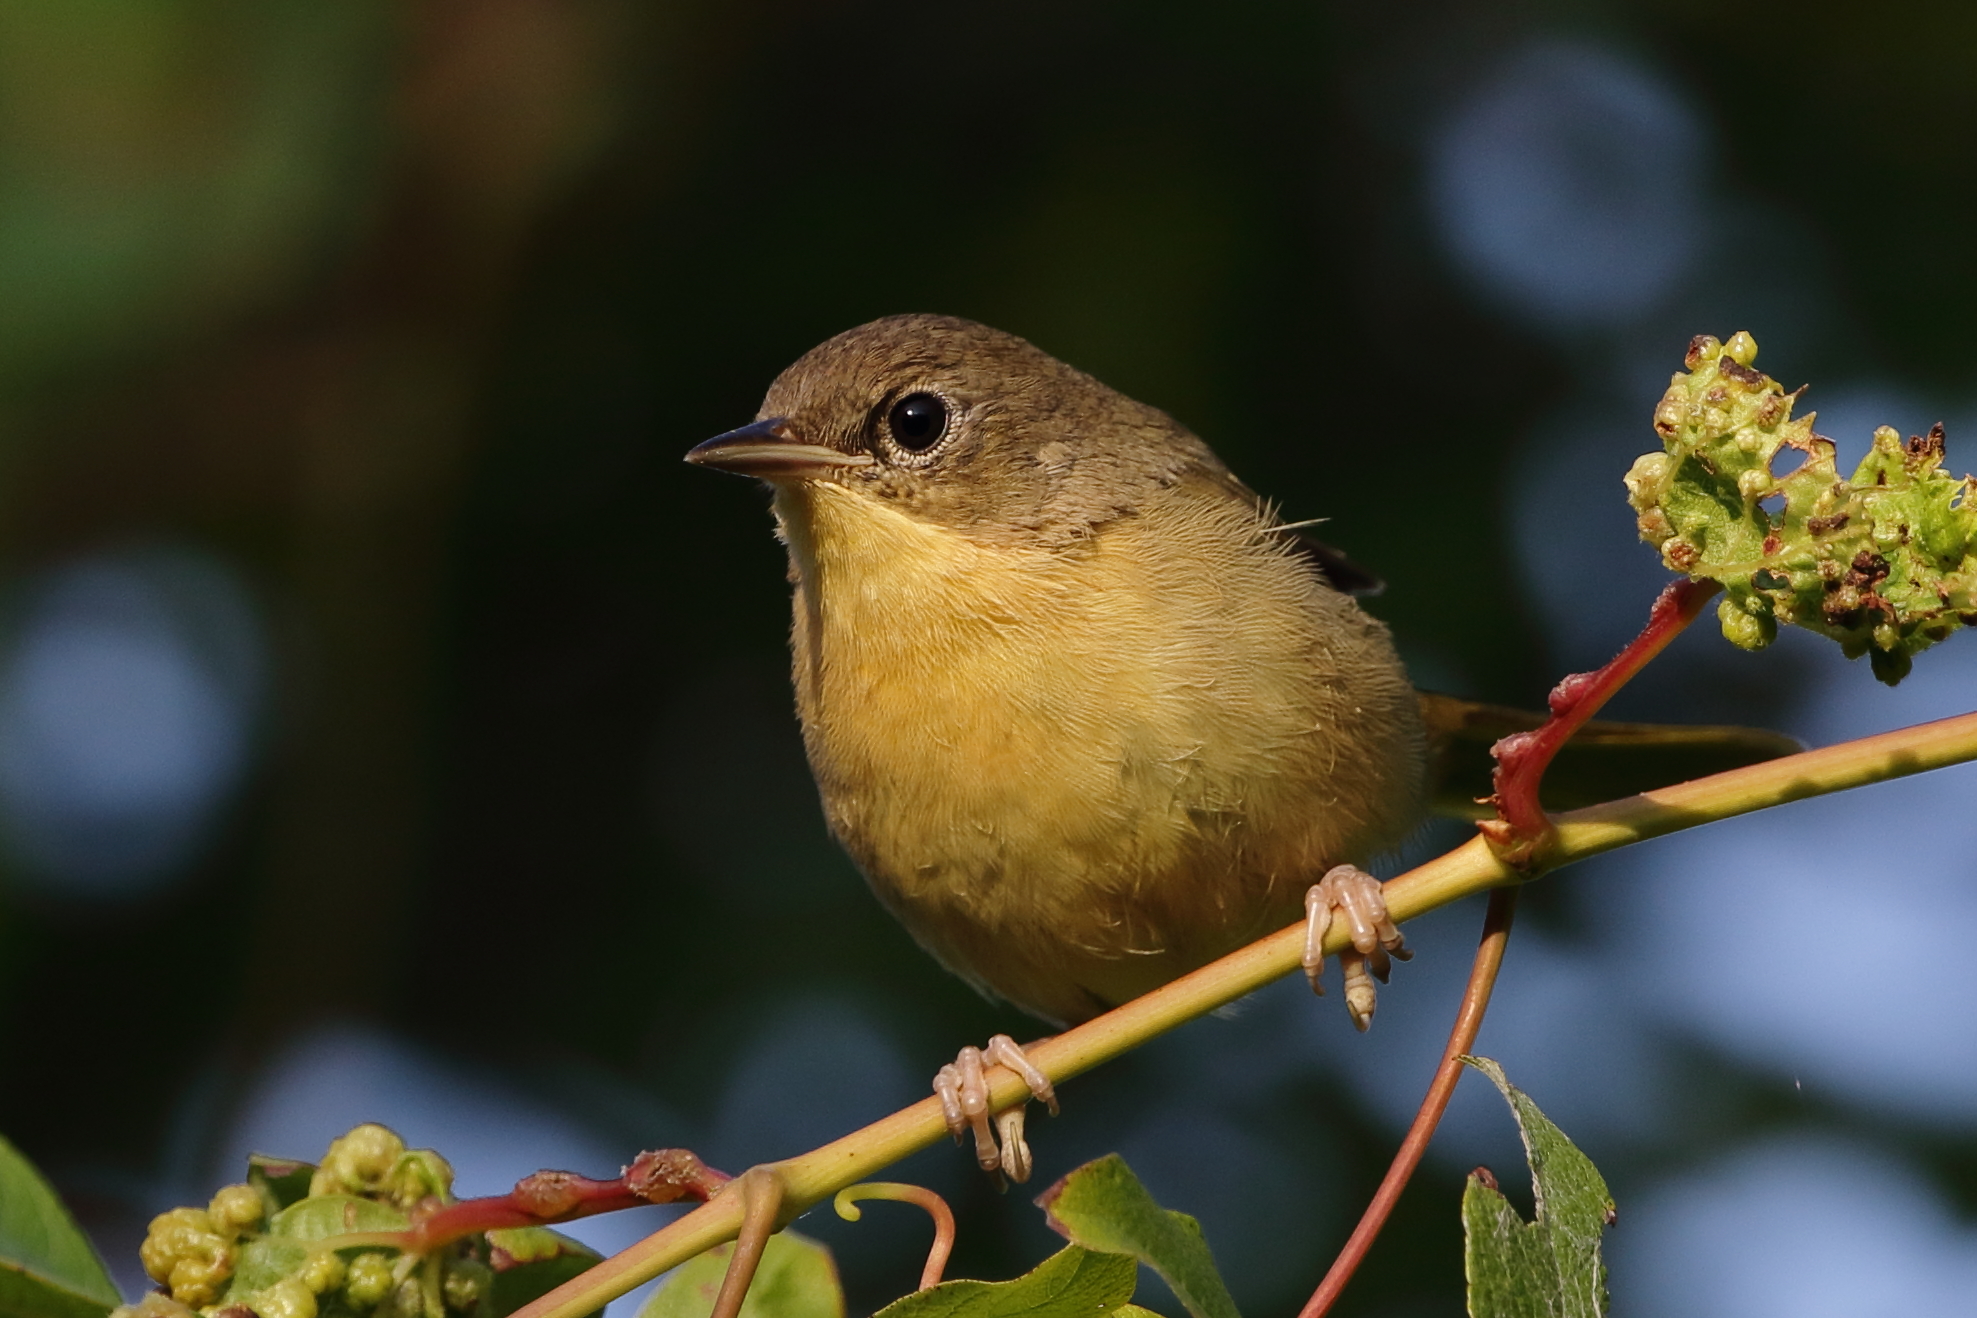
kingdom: Animalia
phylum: Chordata
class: Aves
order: Passeriformes
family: Parulidae
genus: Geothlypis
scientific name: Geothlypis trichas
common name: Common yellowthroat
